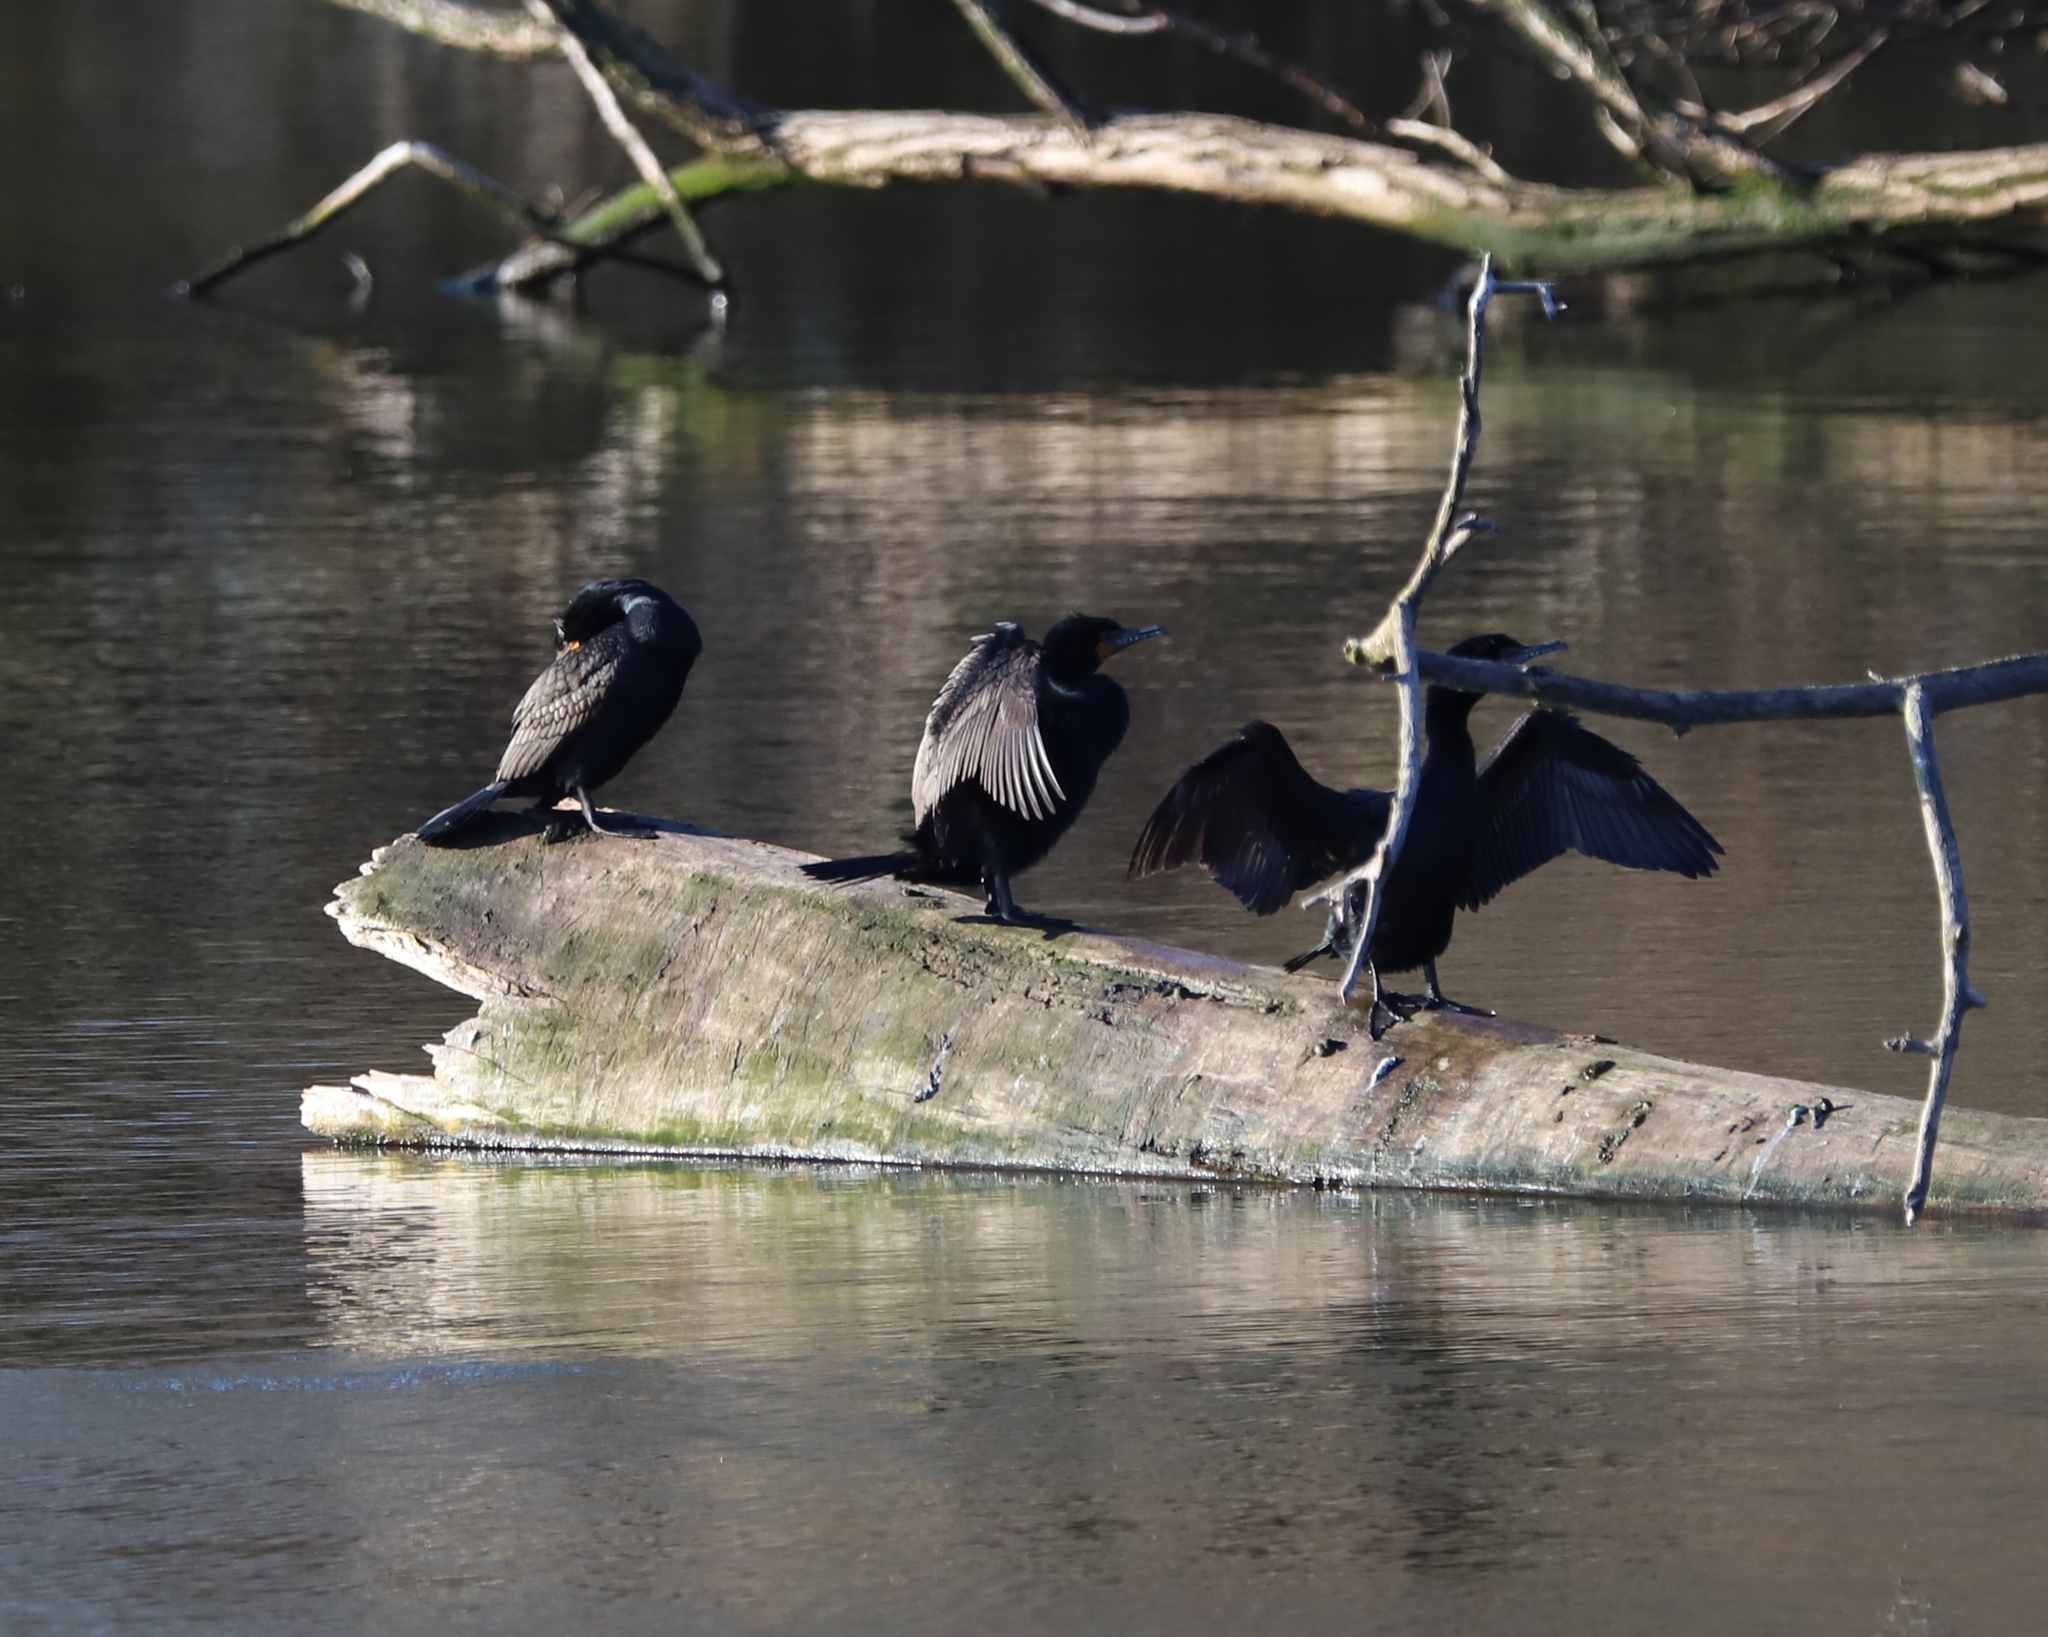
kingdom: Animalia
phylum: Chordata
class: Aves
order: Suliformes
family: Phalacrocoracidae
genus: Phalacrocorax
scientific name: Phalacrocorax auritus
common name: Double-crested cormorant
